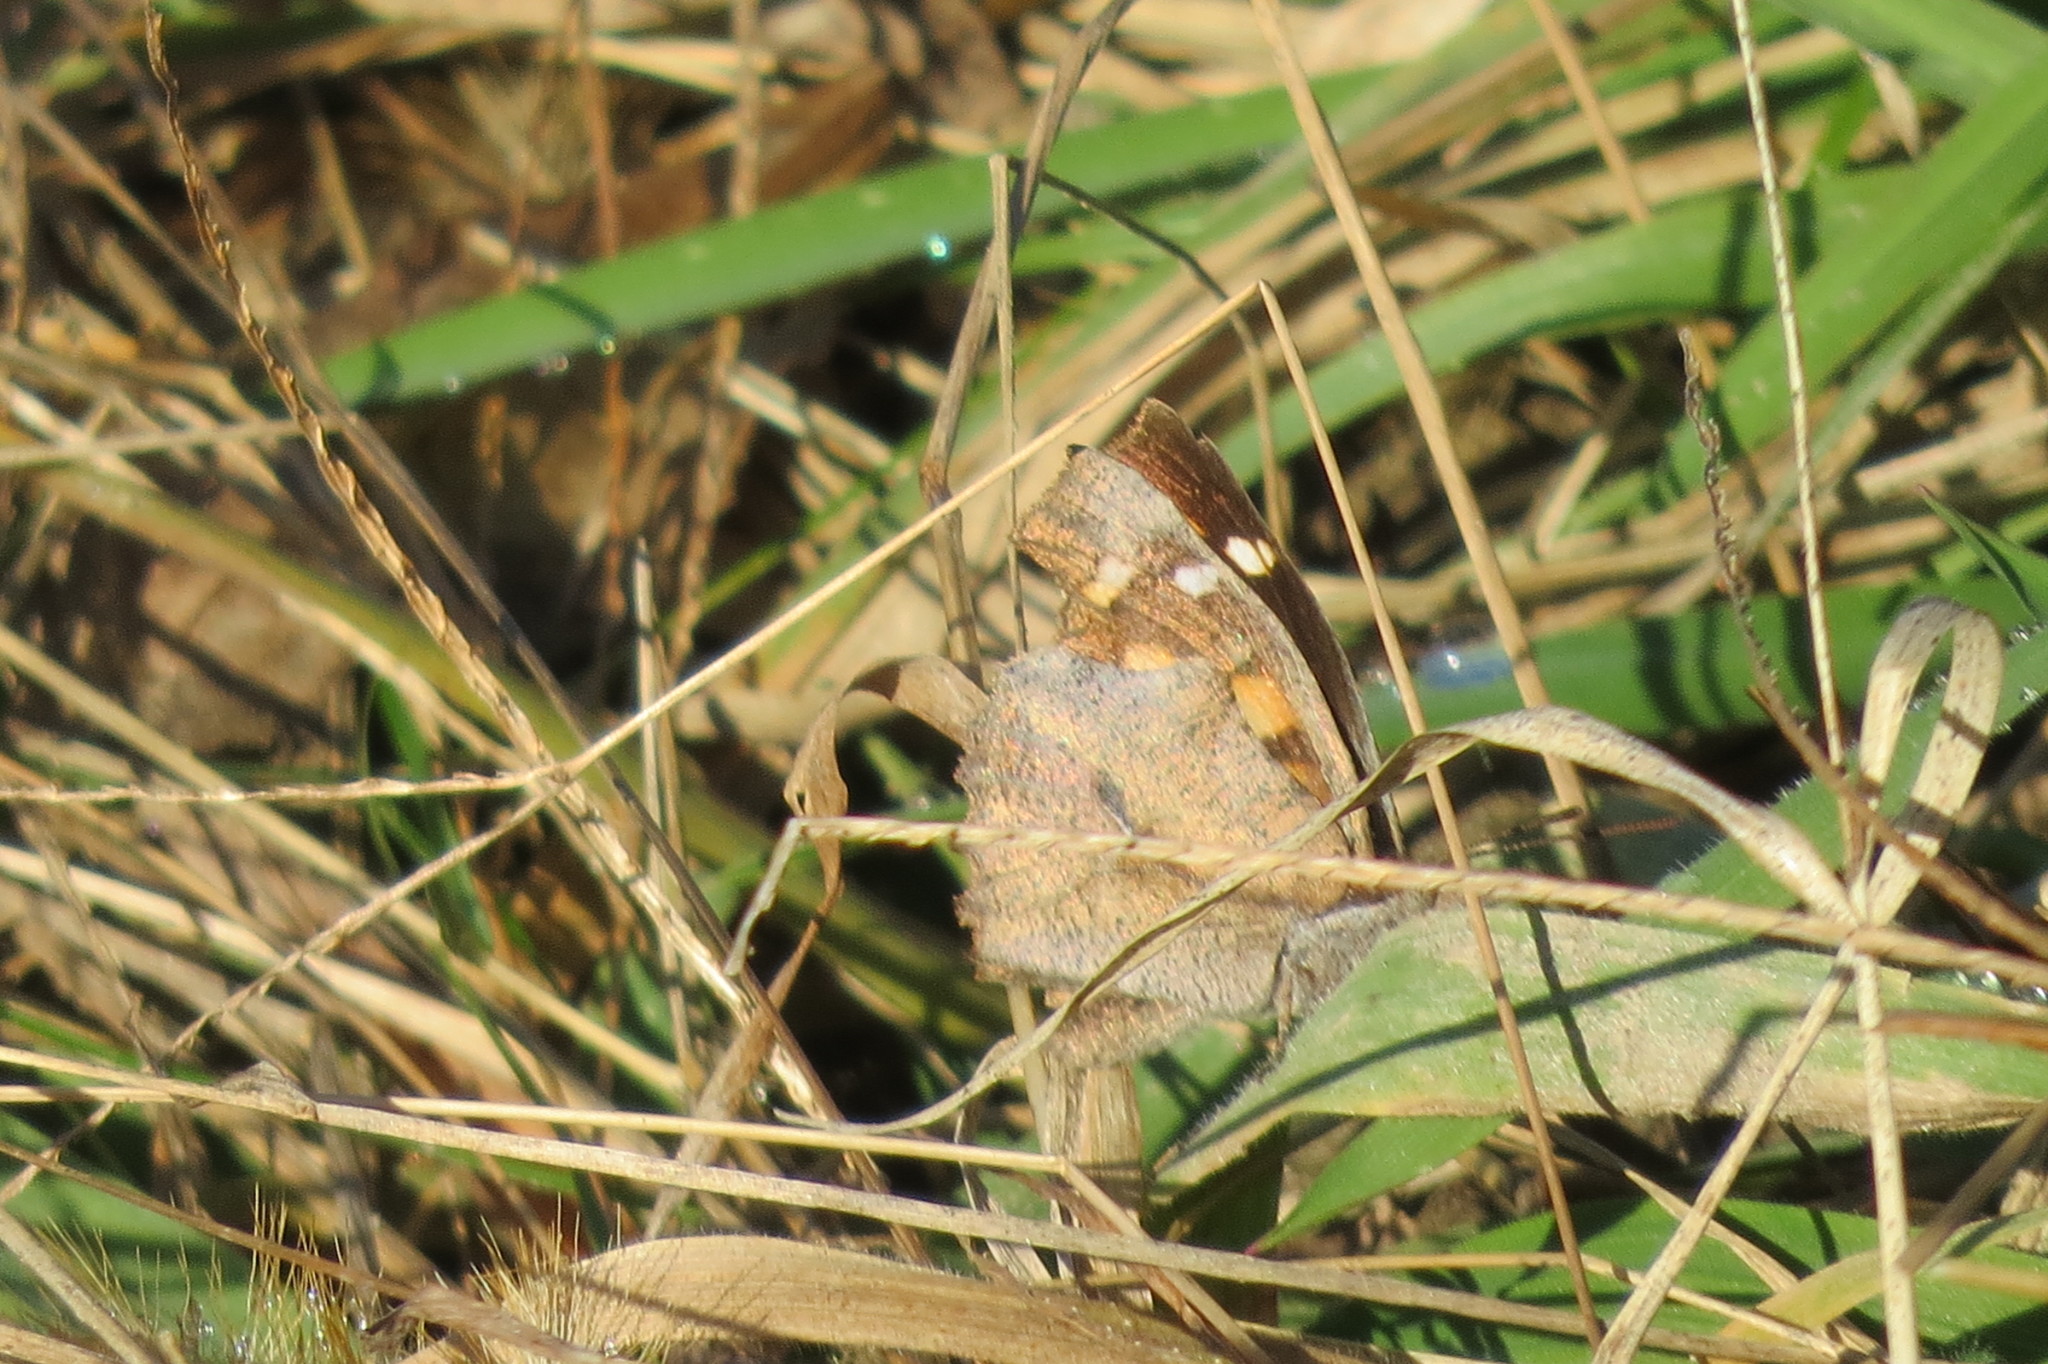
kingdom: Animalia
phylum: Arthropoda
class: Insecta
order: Lepidoptera
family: Nymphalidae
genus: Libythea
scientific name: Libythea celtis
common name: Nettle-tree butterfly
